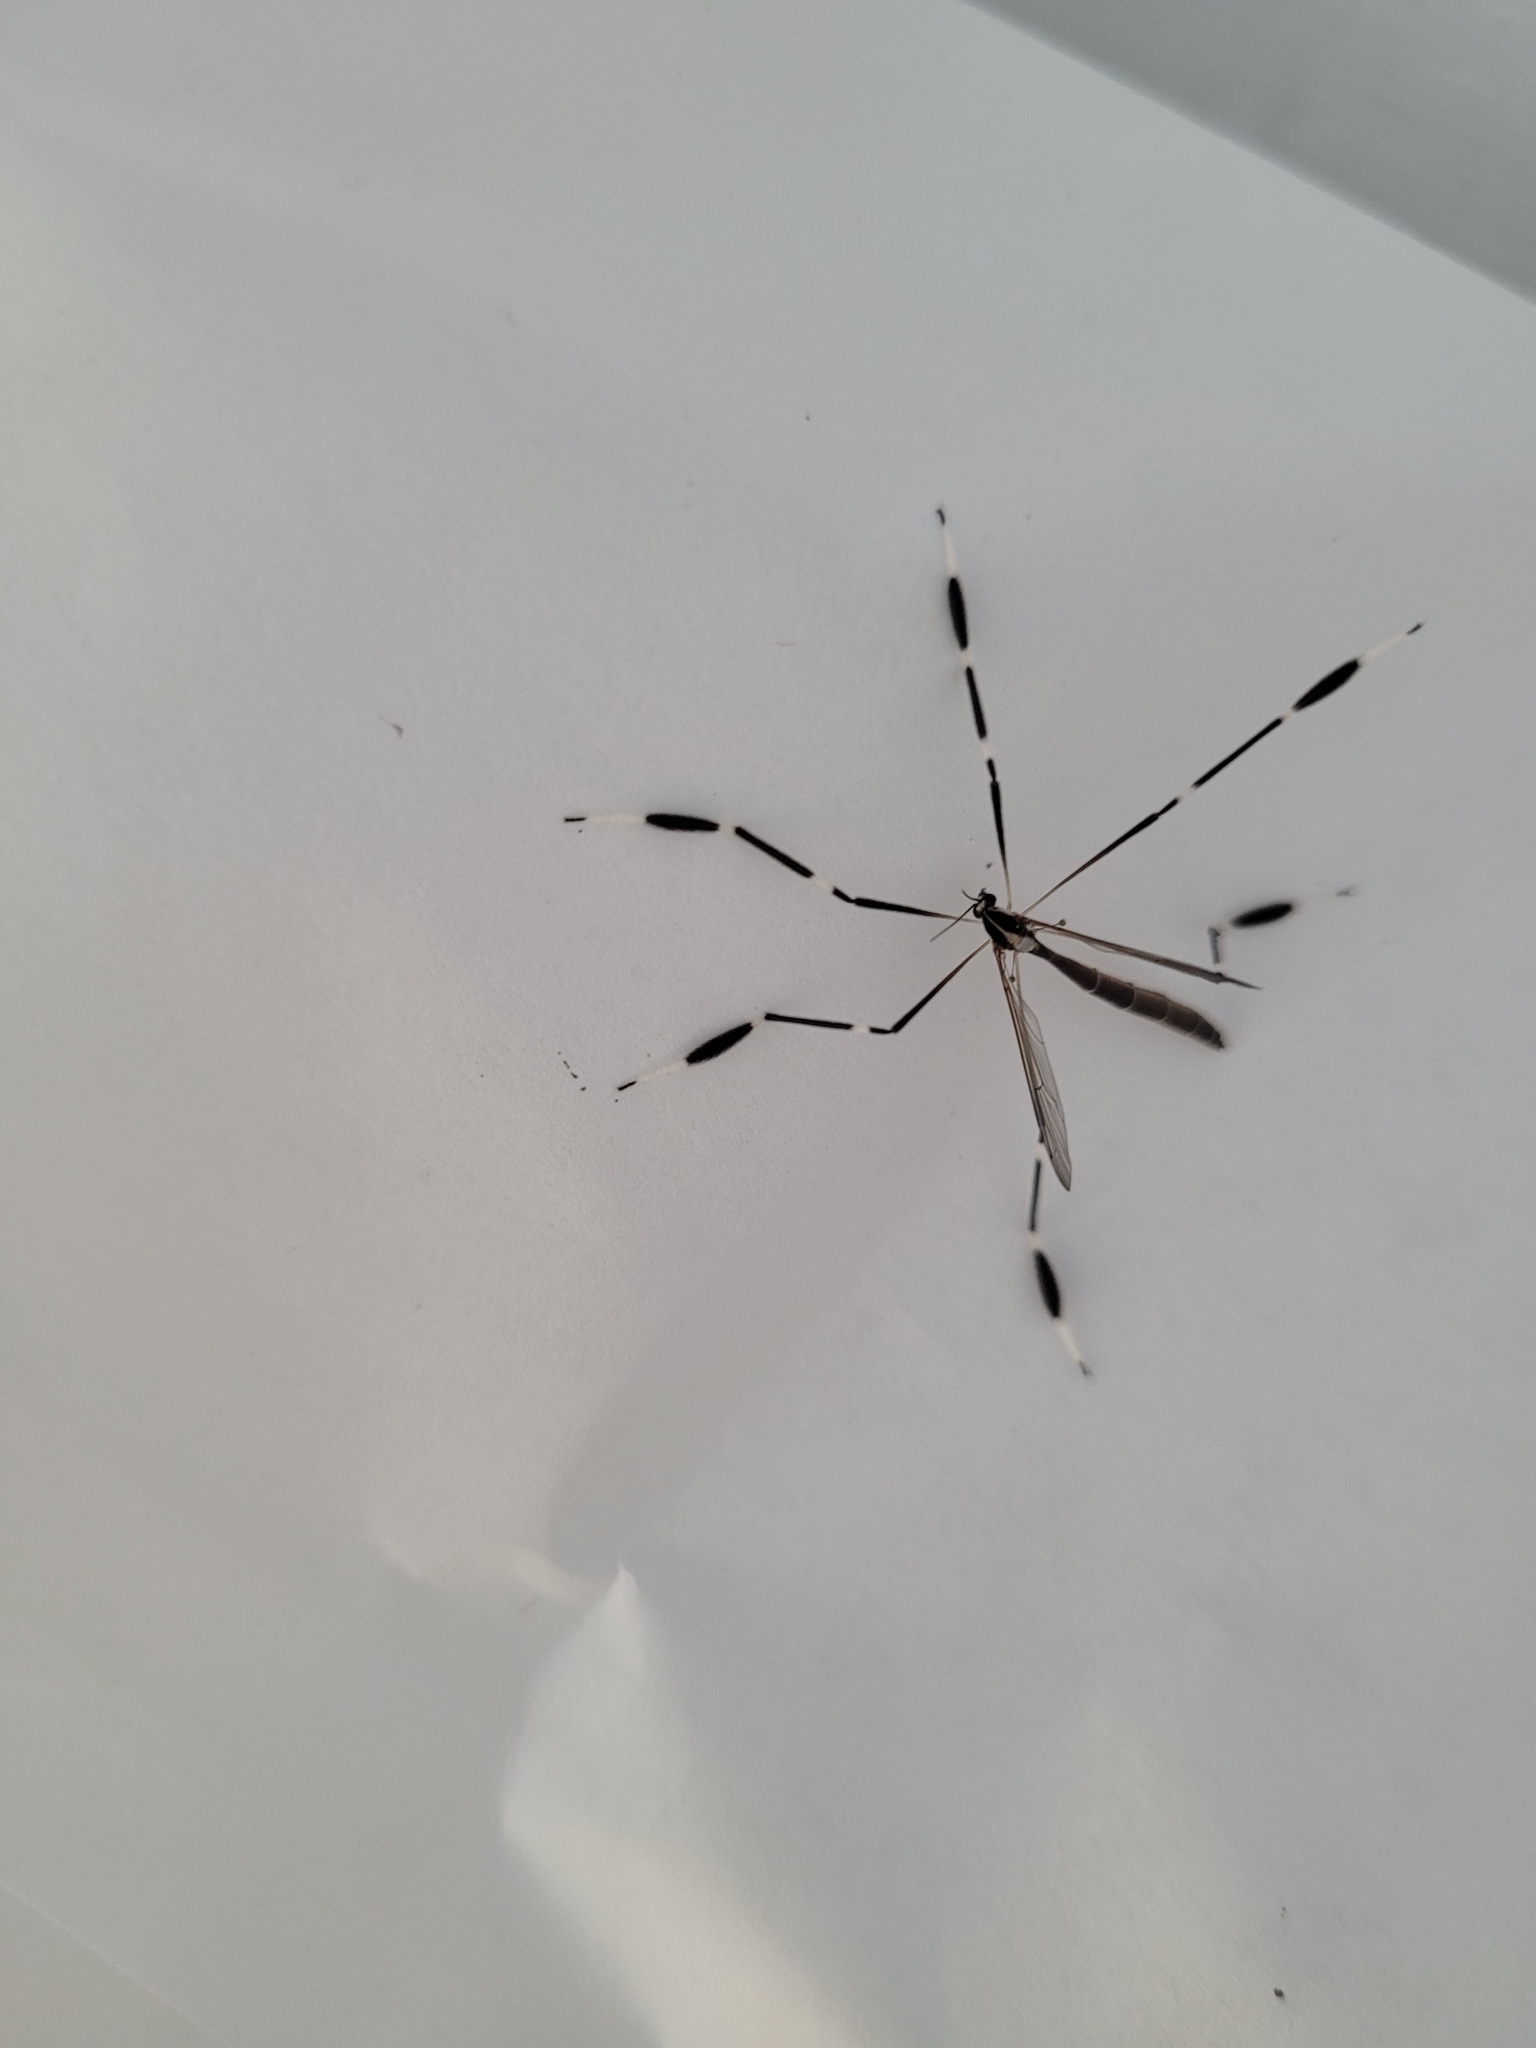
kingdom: Animalia
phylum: Arthropoda
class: Insecta
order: Diptera
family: Ptychopteridae
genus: Bittacomorpha
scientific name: Bittacomorpha clavipes
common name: Eastern phantom crane fly
